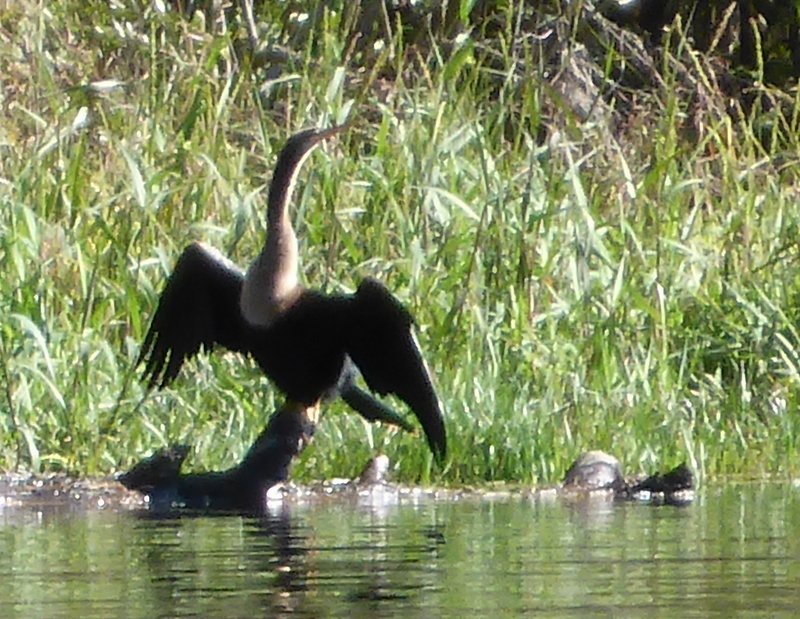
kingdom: Animalia
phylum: Chordata
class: Aves
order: Suliformes
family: Anhingidae
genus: Anhinga
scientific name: Anhinga anhinga
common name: Anhinga
